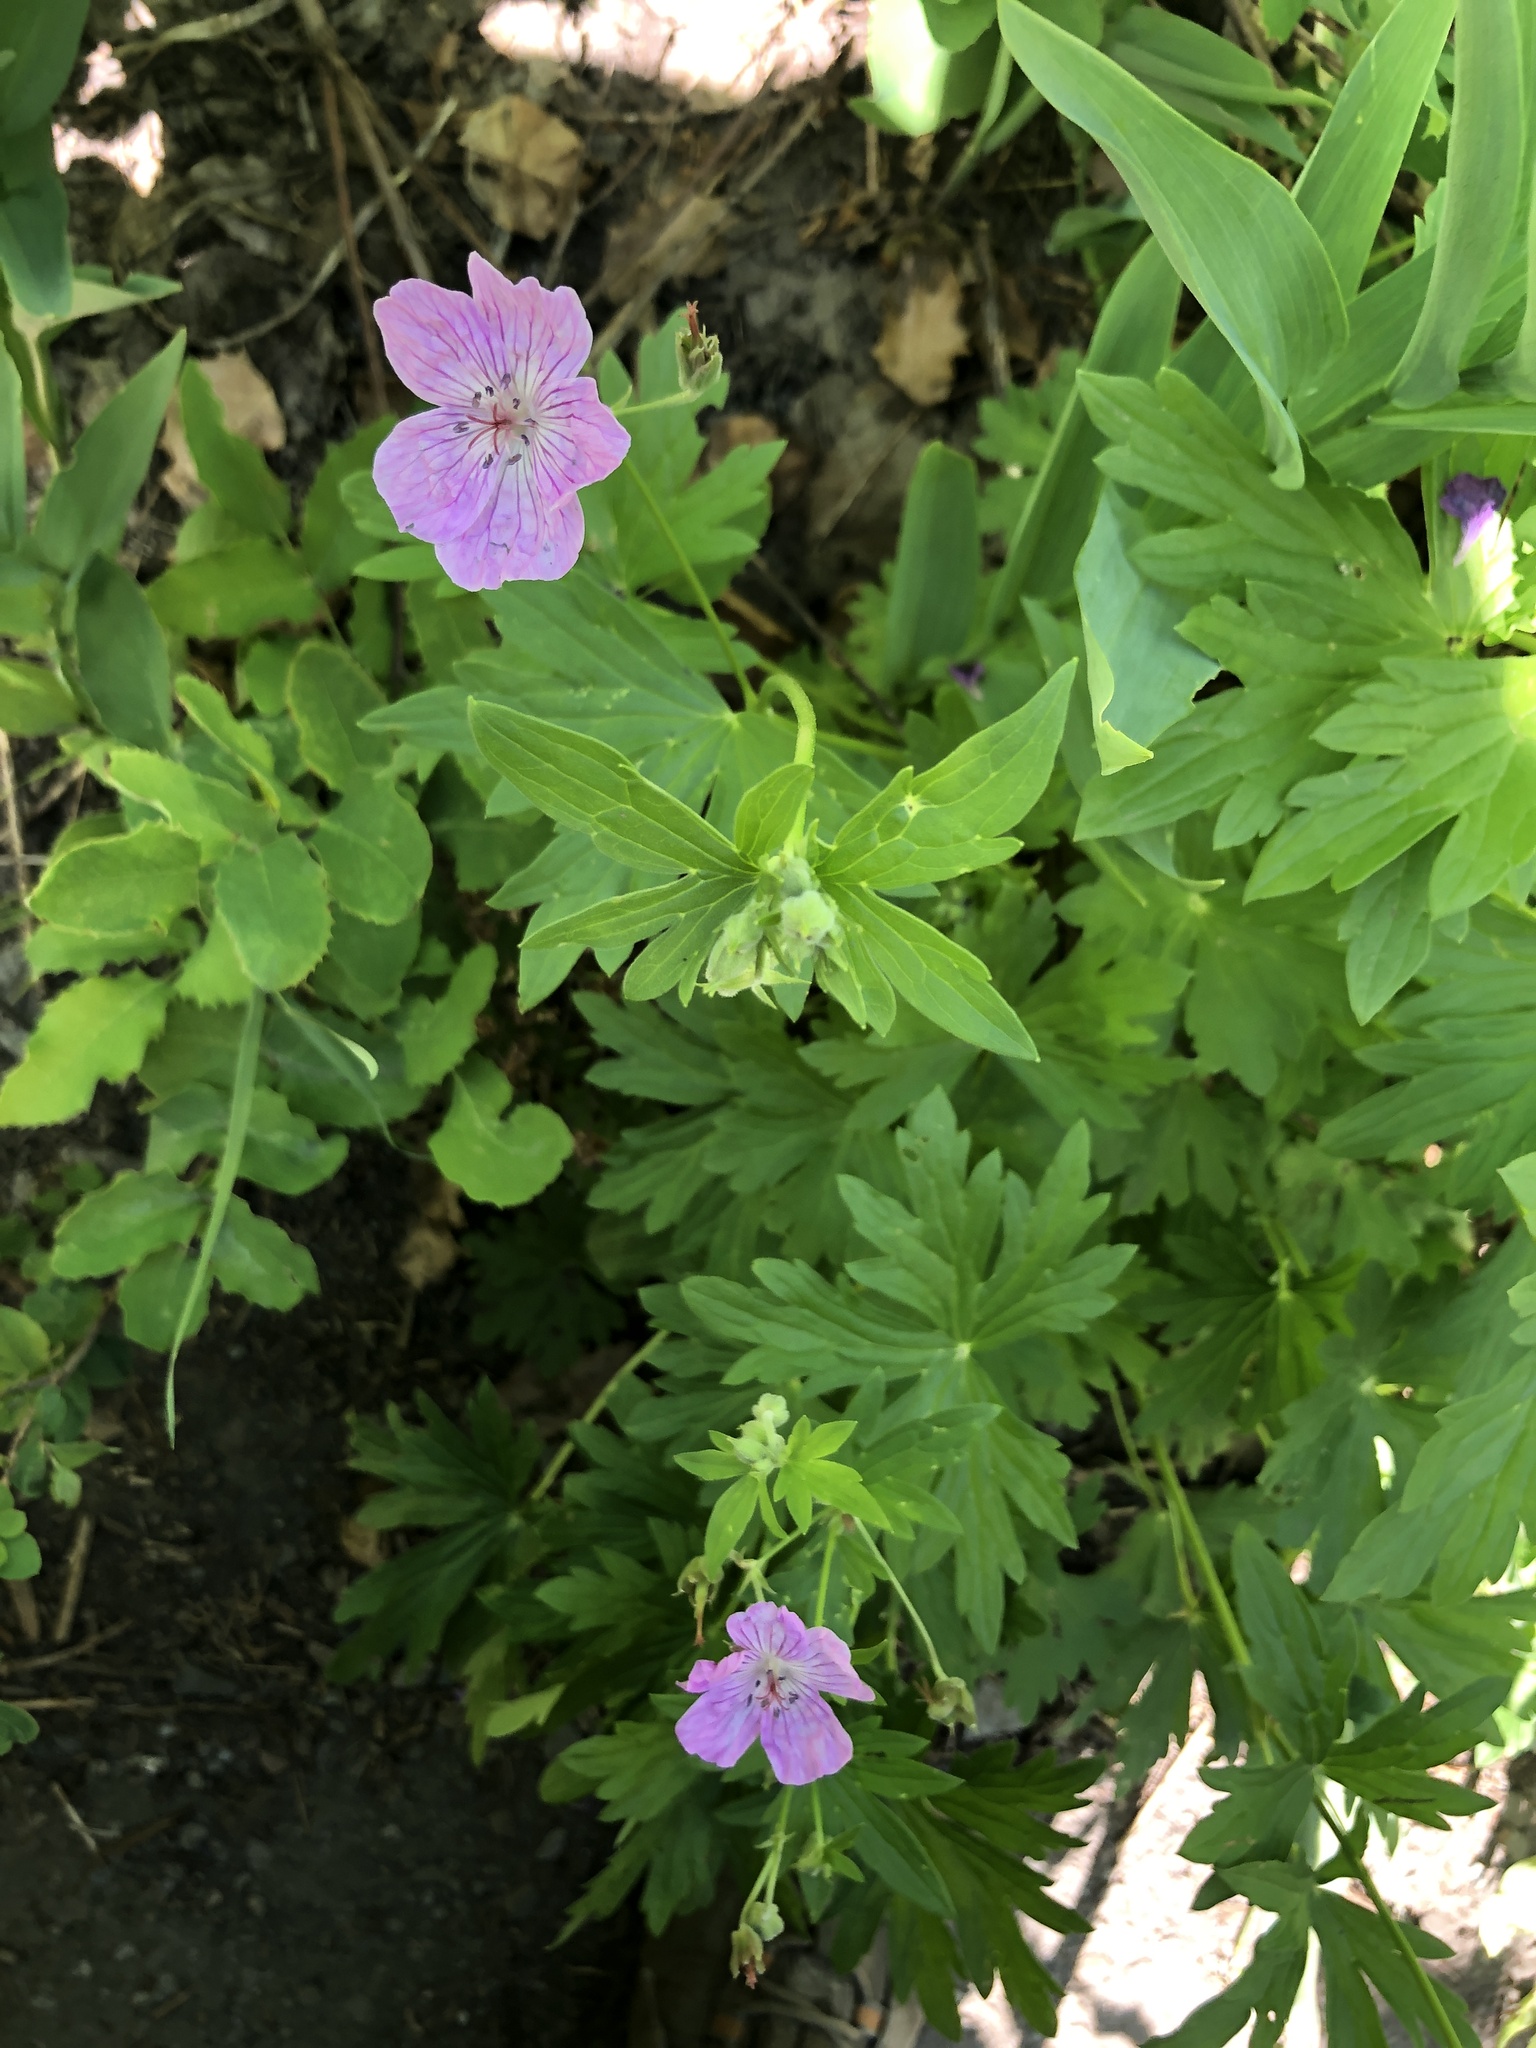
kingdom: Plantae
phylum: Tracheophyta
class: Magnoliopsida
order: Geraniales
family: Geraniaceae
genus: Geranium
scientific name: Geranium viscosissimum
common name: Purple geranium
